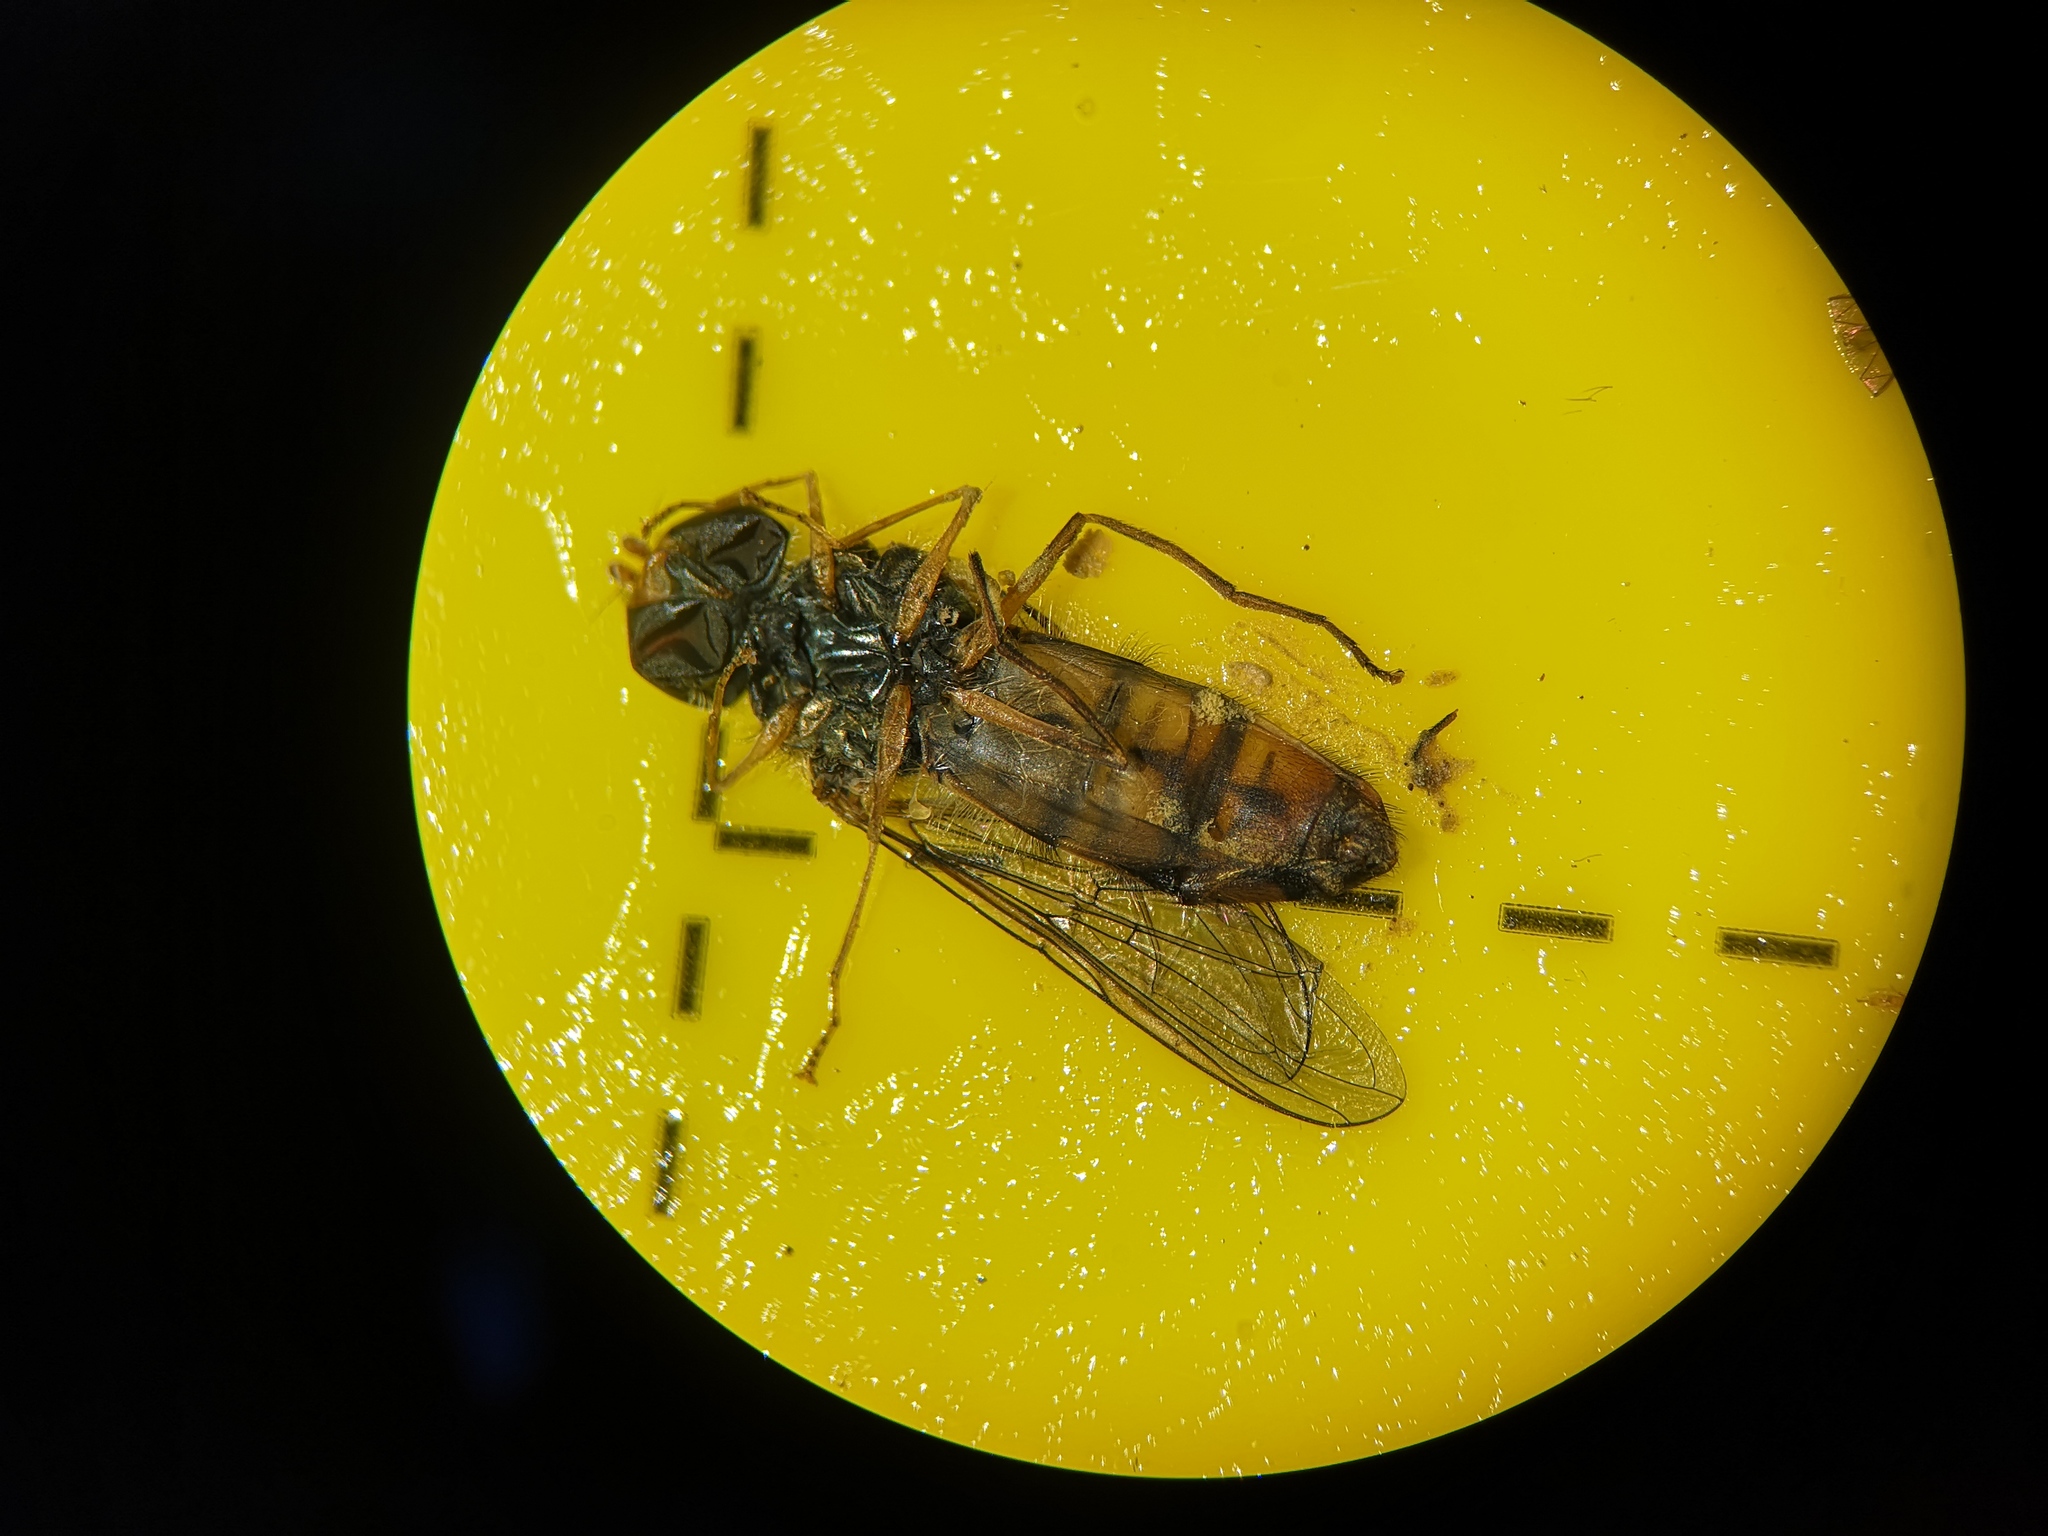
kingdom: Animalia
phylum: Arthropoda
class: Insecta
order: Diptera
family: Syrphidae
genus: Episyrphus
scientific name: Episyrphus balteatus
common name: Marmalade hoverfly
